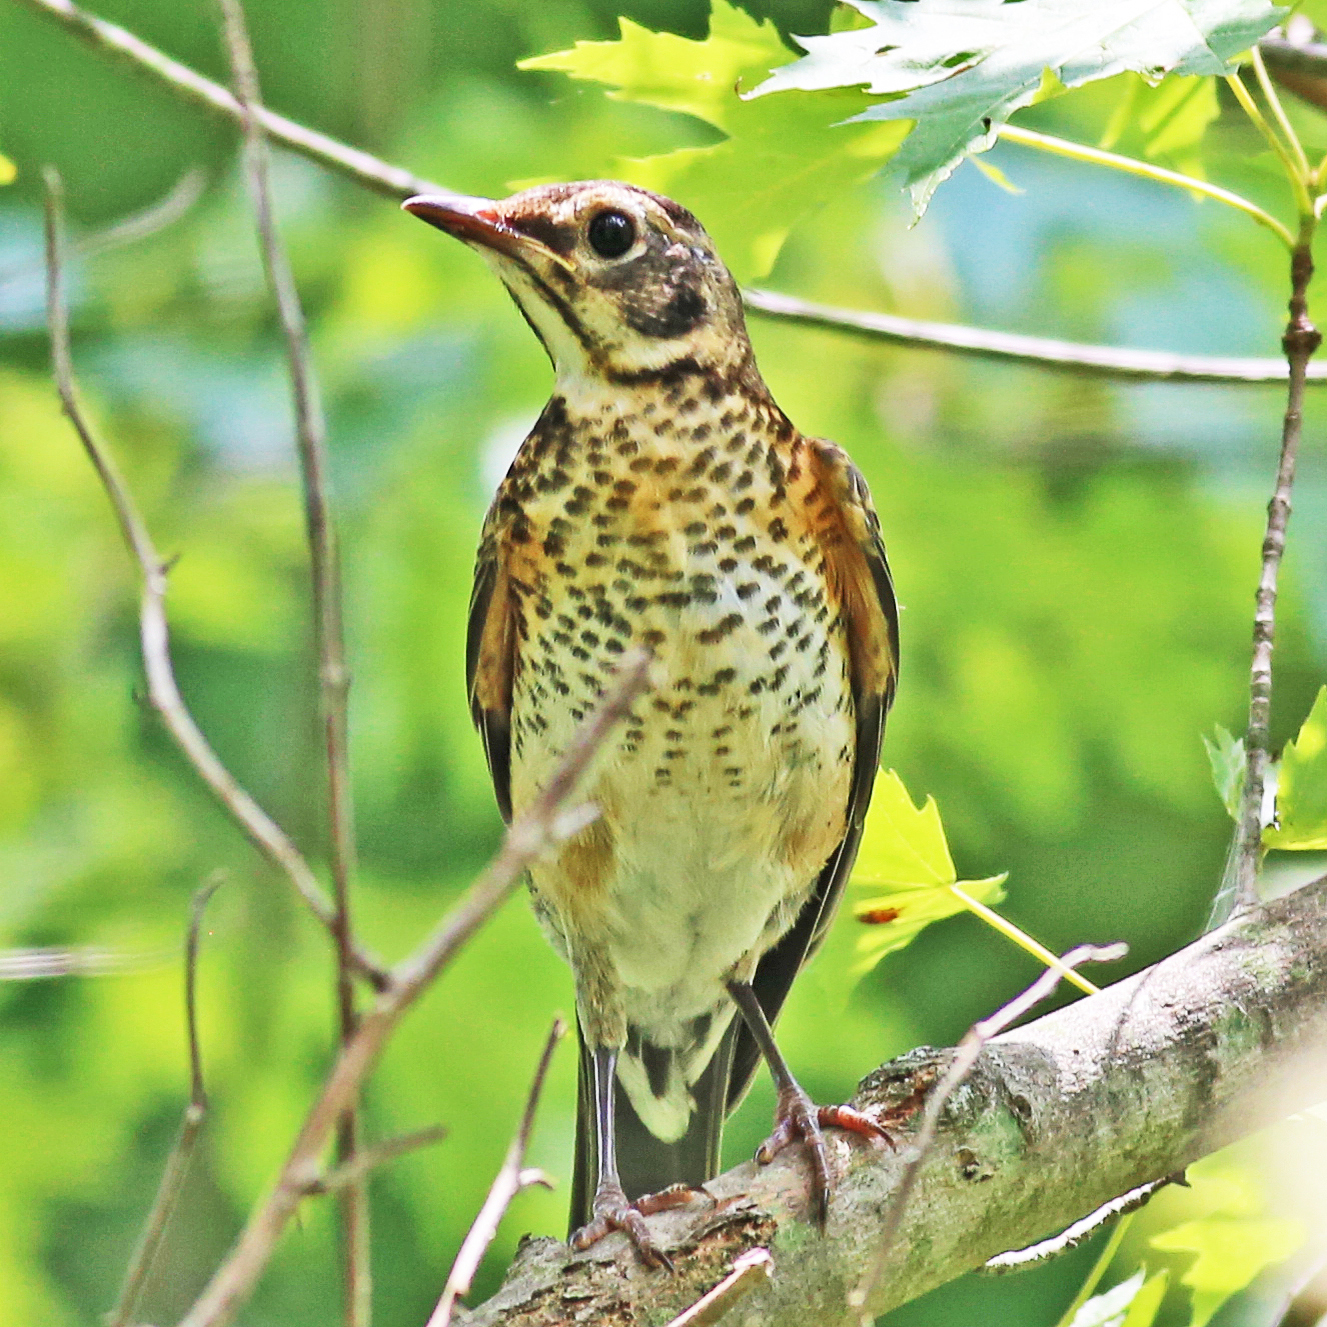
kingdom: Animalia
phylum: Chordata
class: Aves
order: Passeriformes
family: Turdidae
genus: Turdus
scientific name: Turdus migratorius
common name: American robin
